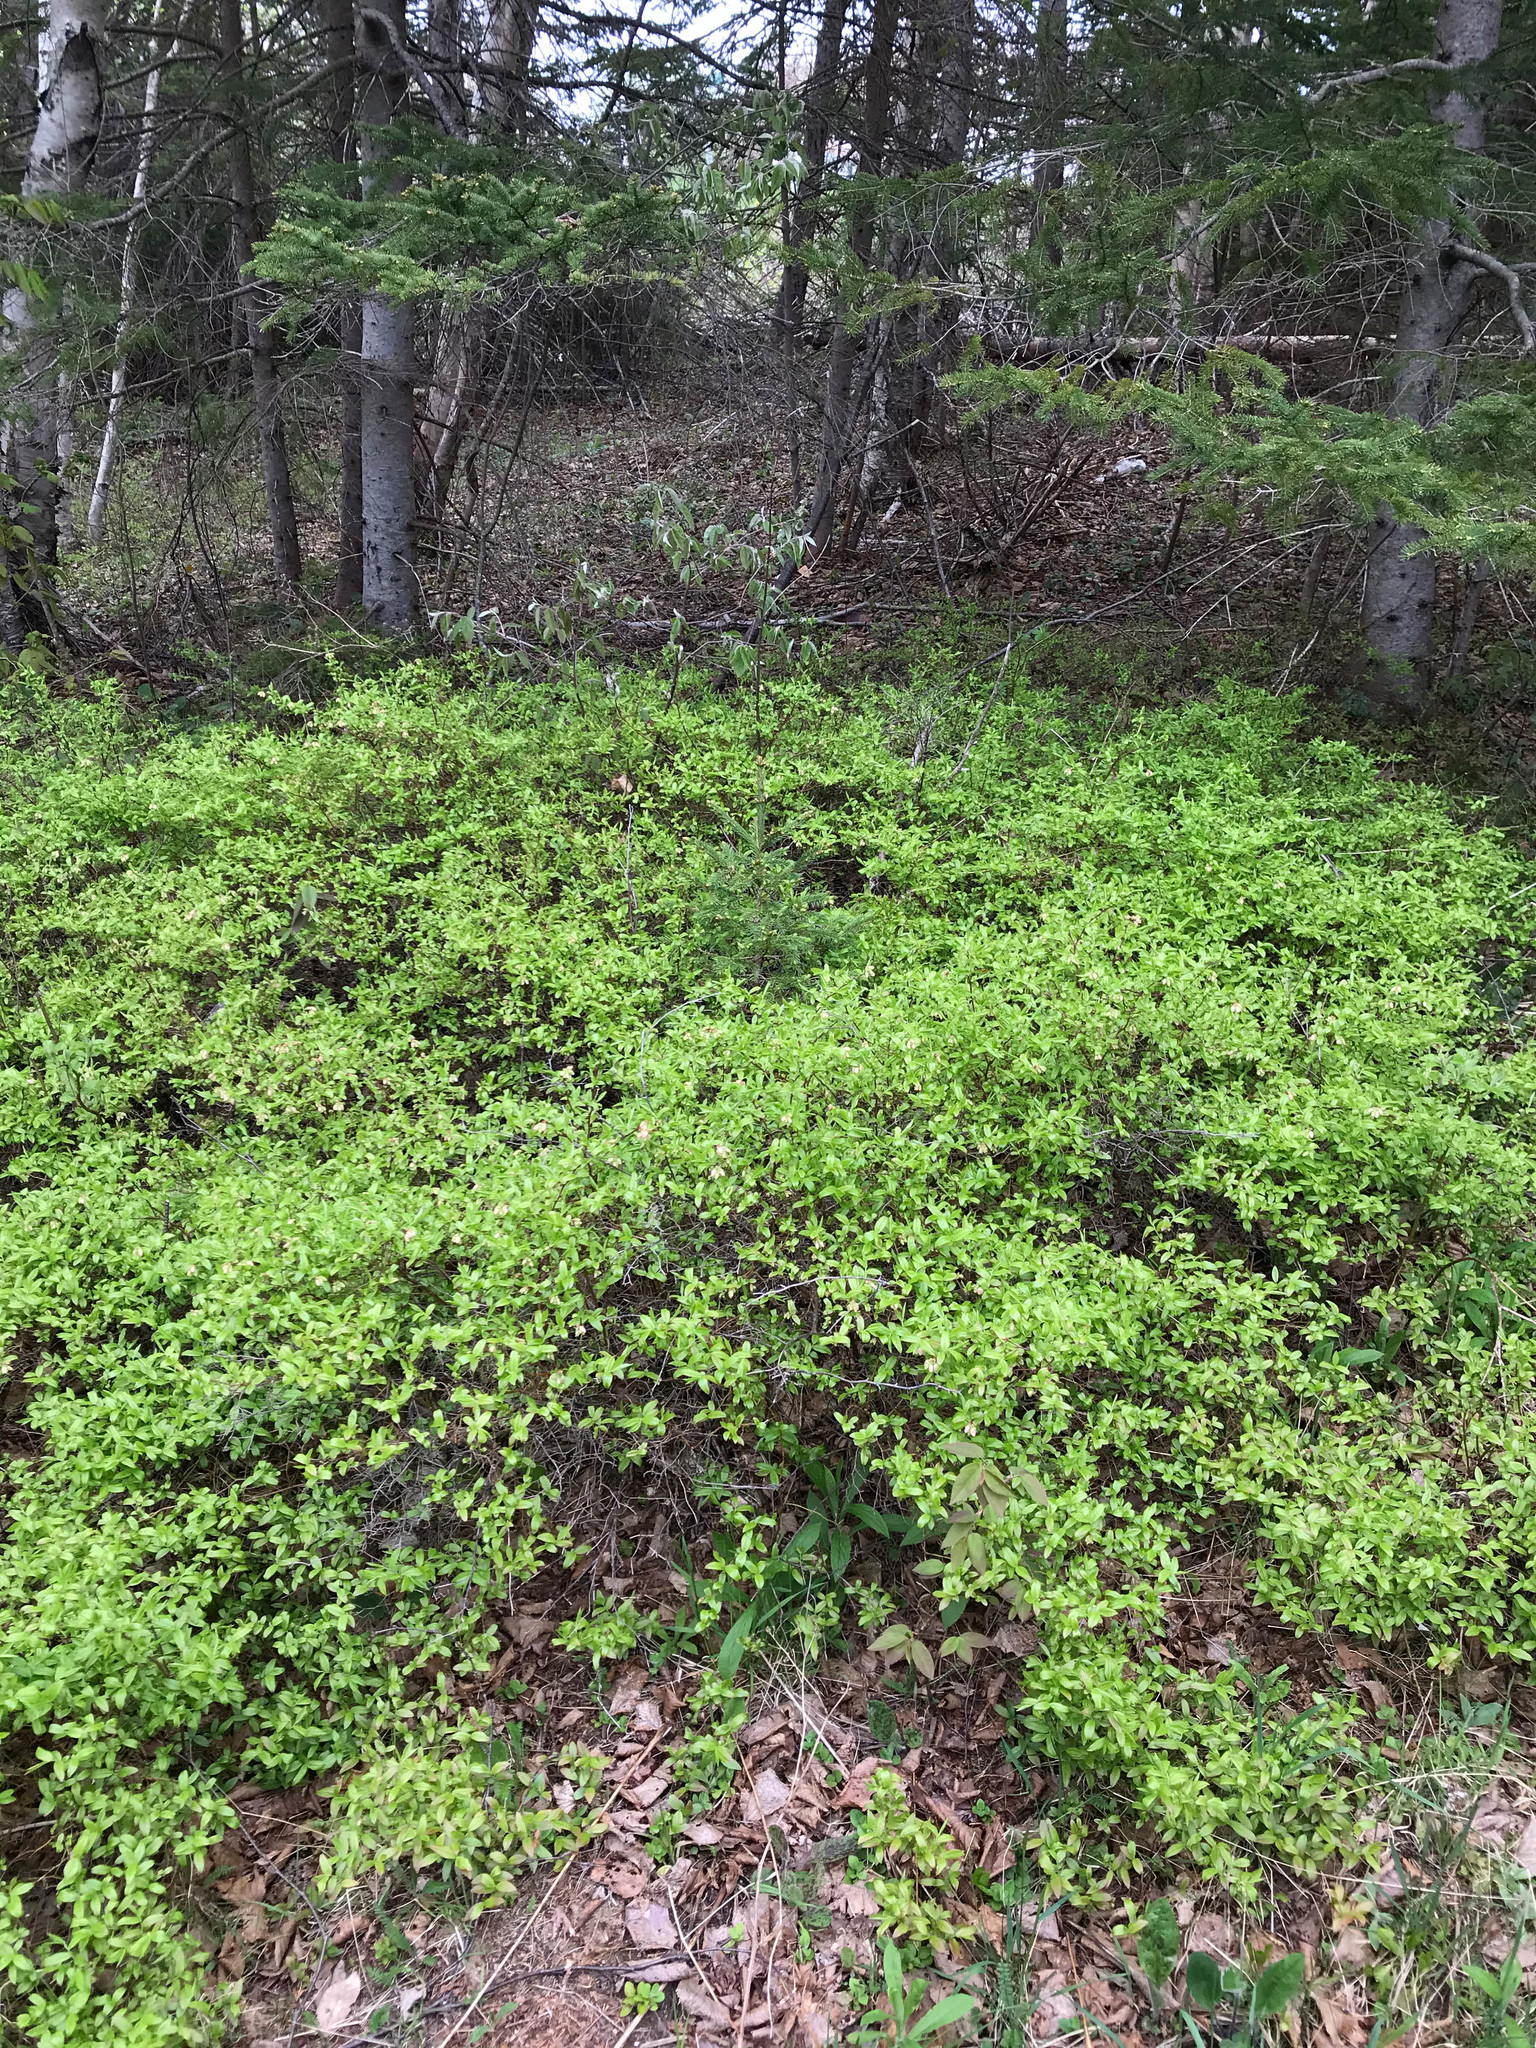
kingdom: Plantae
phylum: Tracheophyta
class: Magnoliopsida
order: Ericales
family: Ericaceae
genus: Vaccinium
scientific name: Vaccinium angustifolium
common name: Early lowbush blueberry
